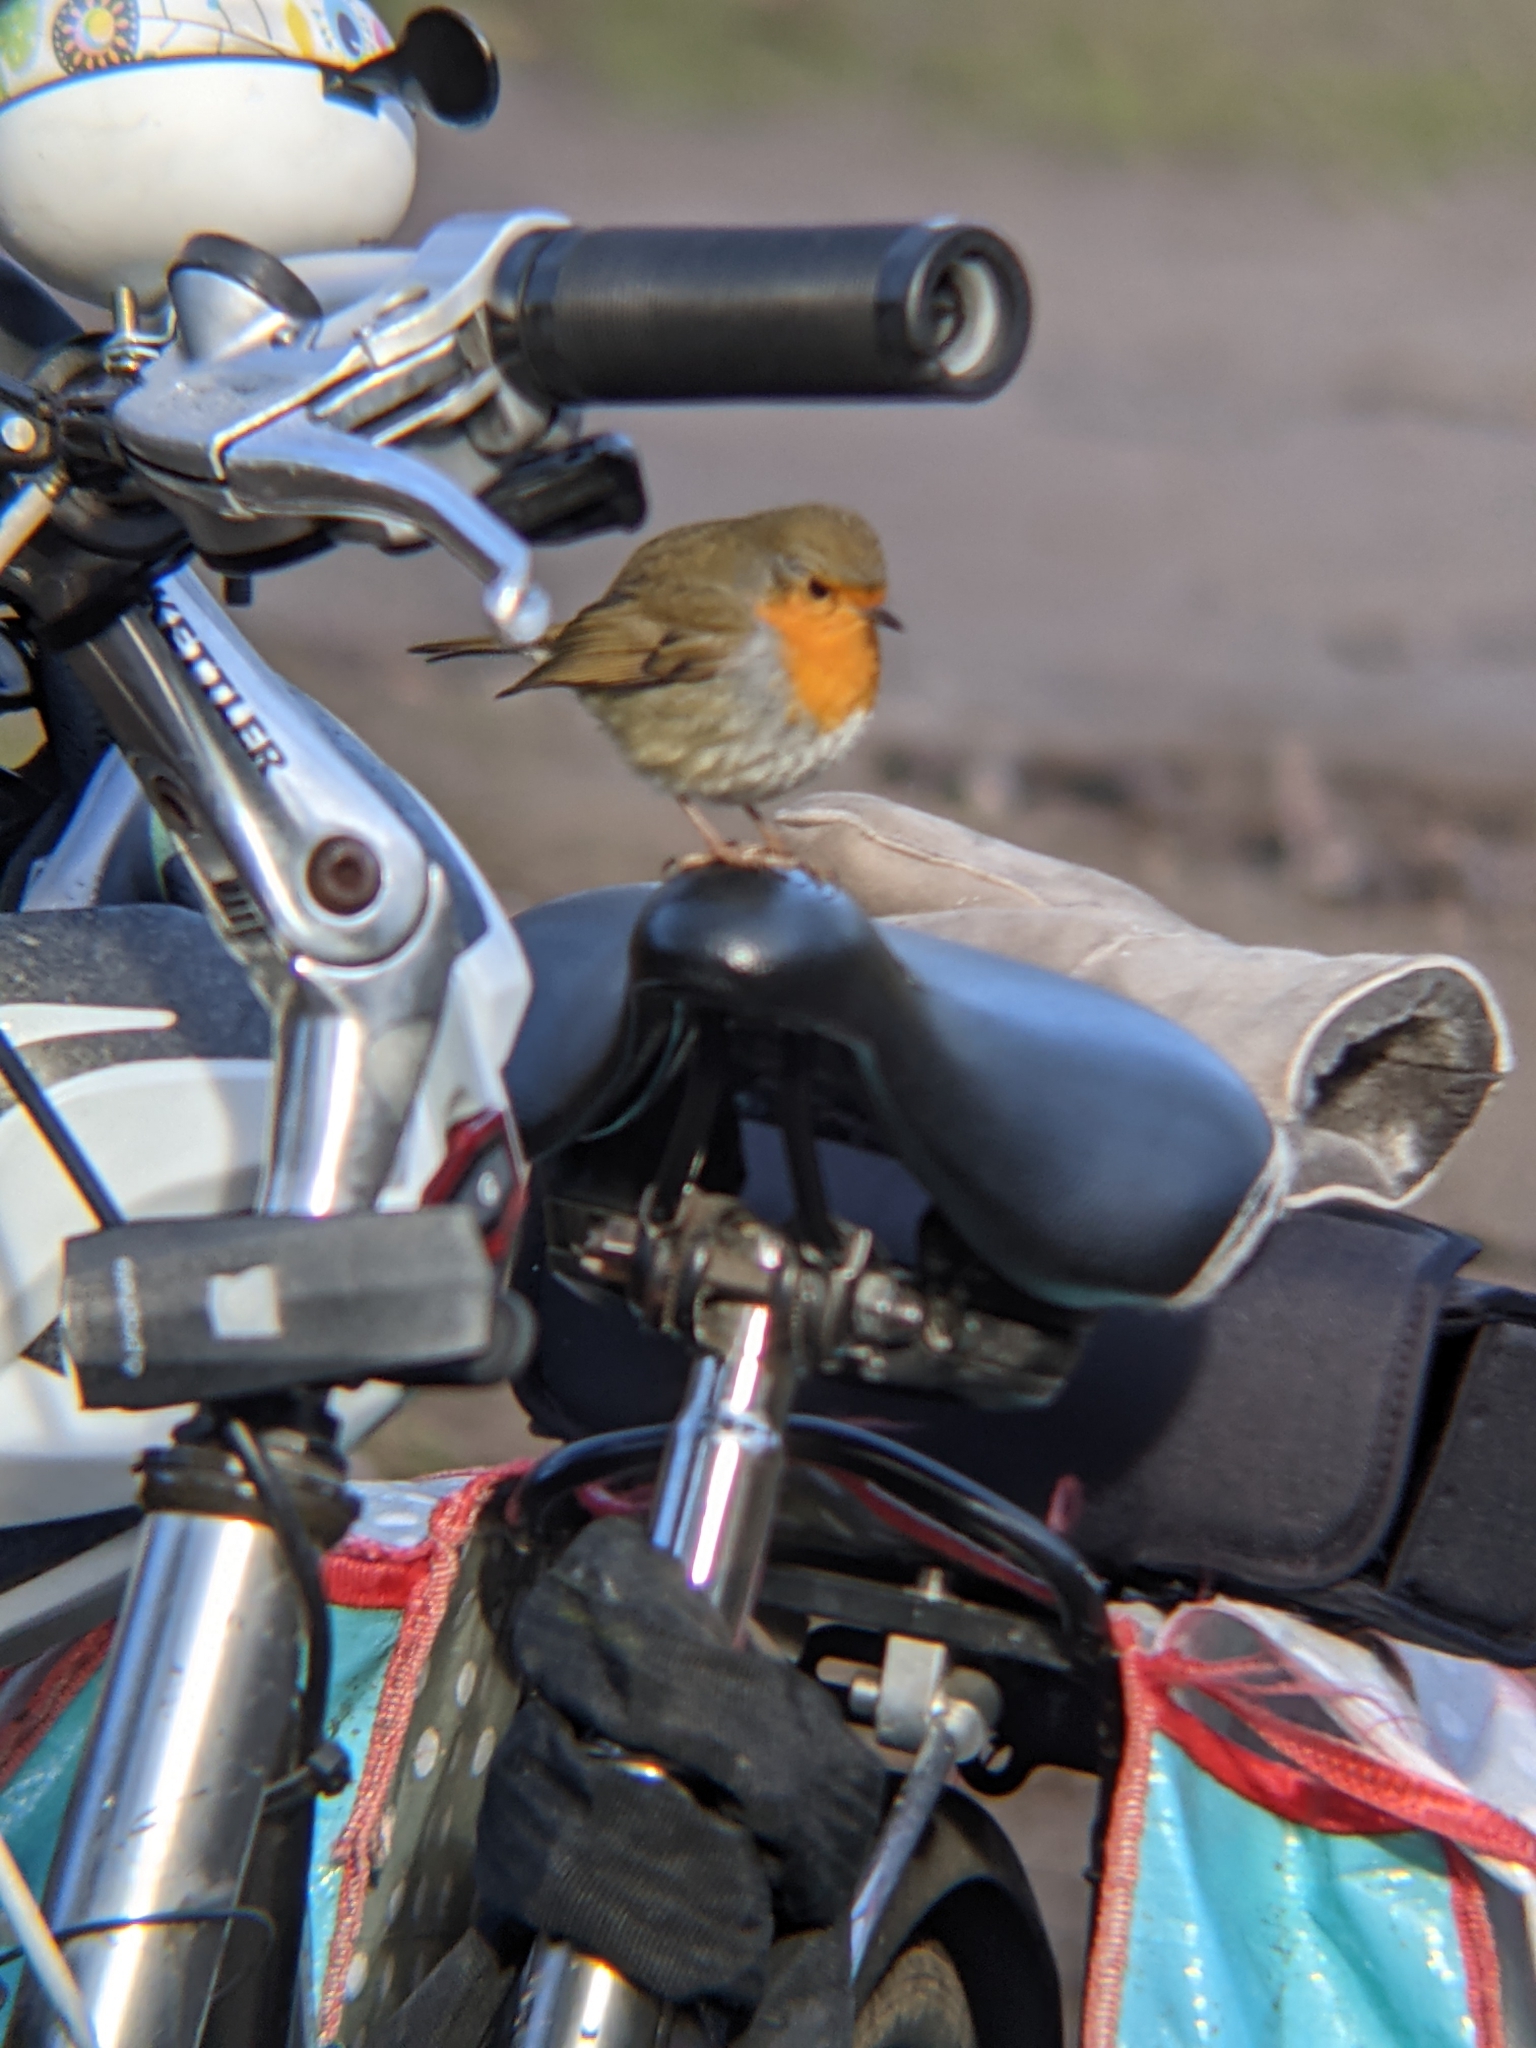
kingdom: Animalia
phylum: Chordata
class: Aves
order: Passeriformes
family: Muscicapidae
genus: Erithacus
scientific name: Erithacus rubecula
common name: European robin
